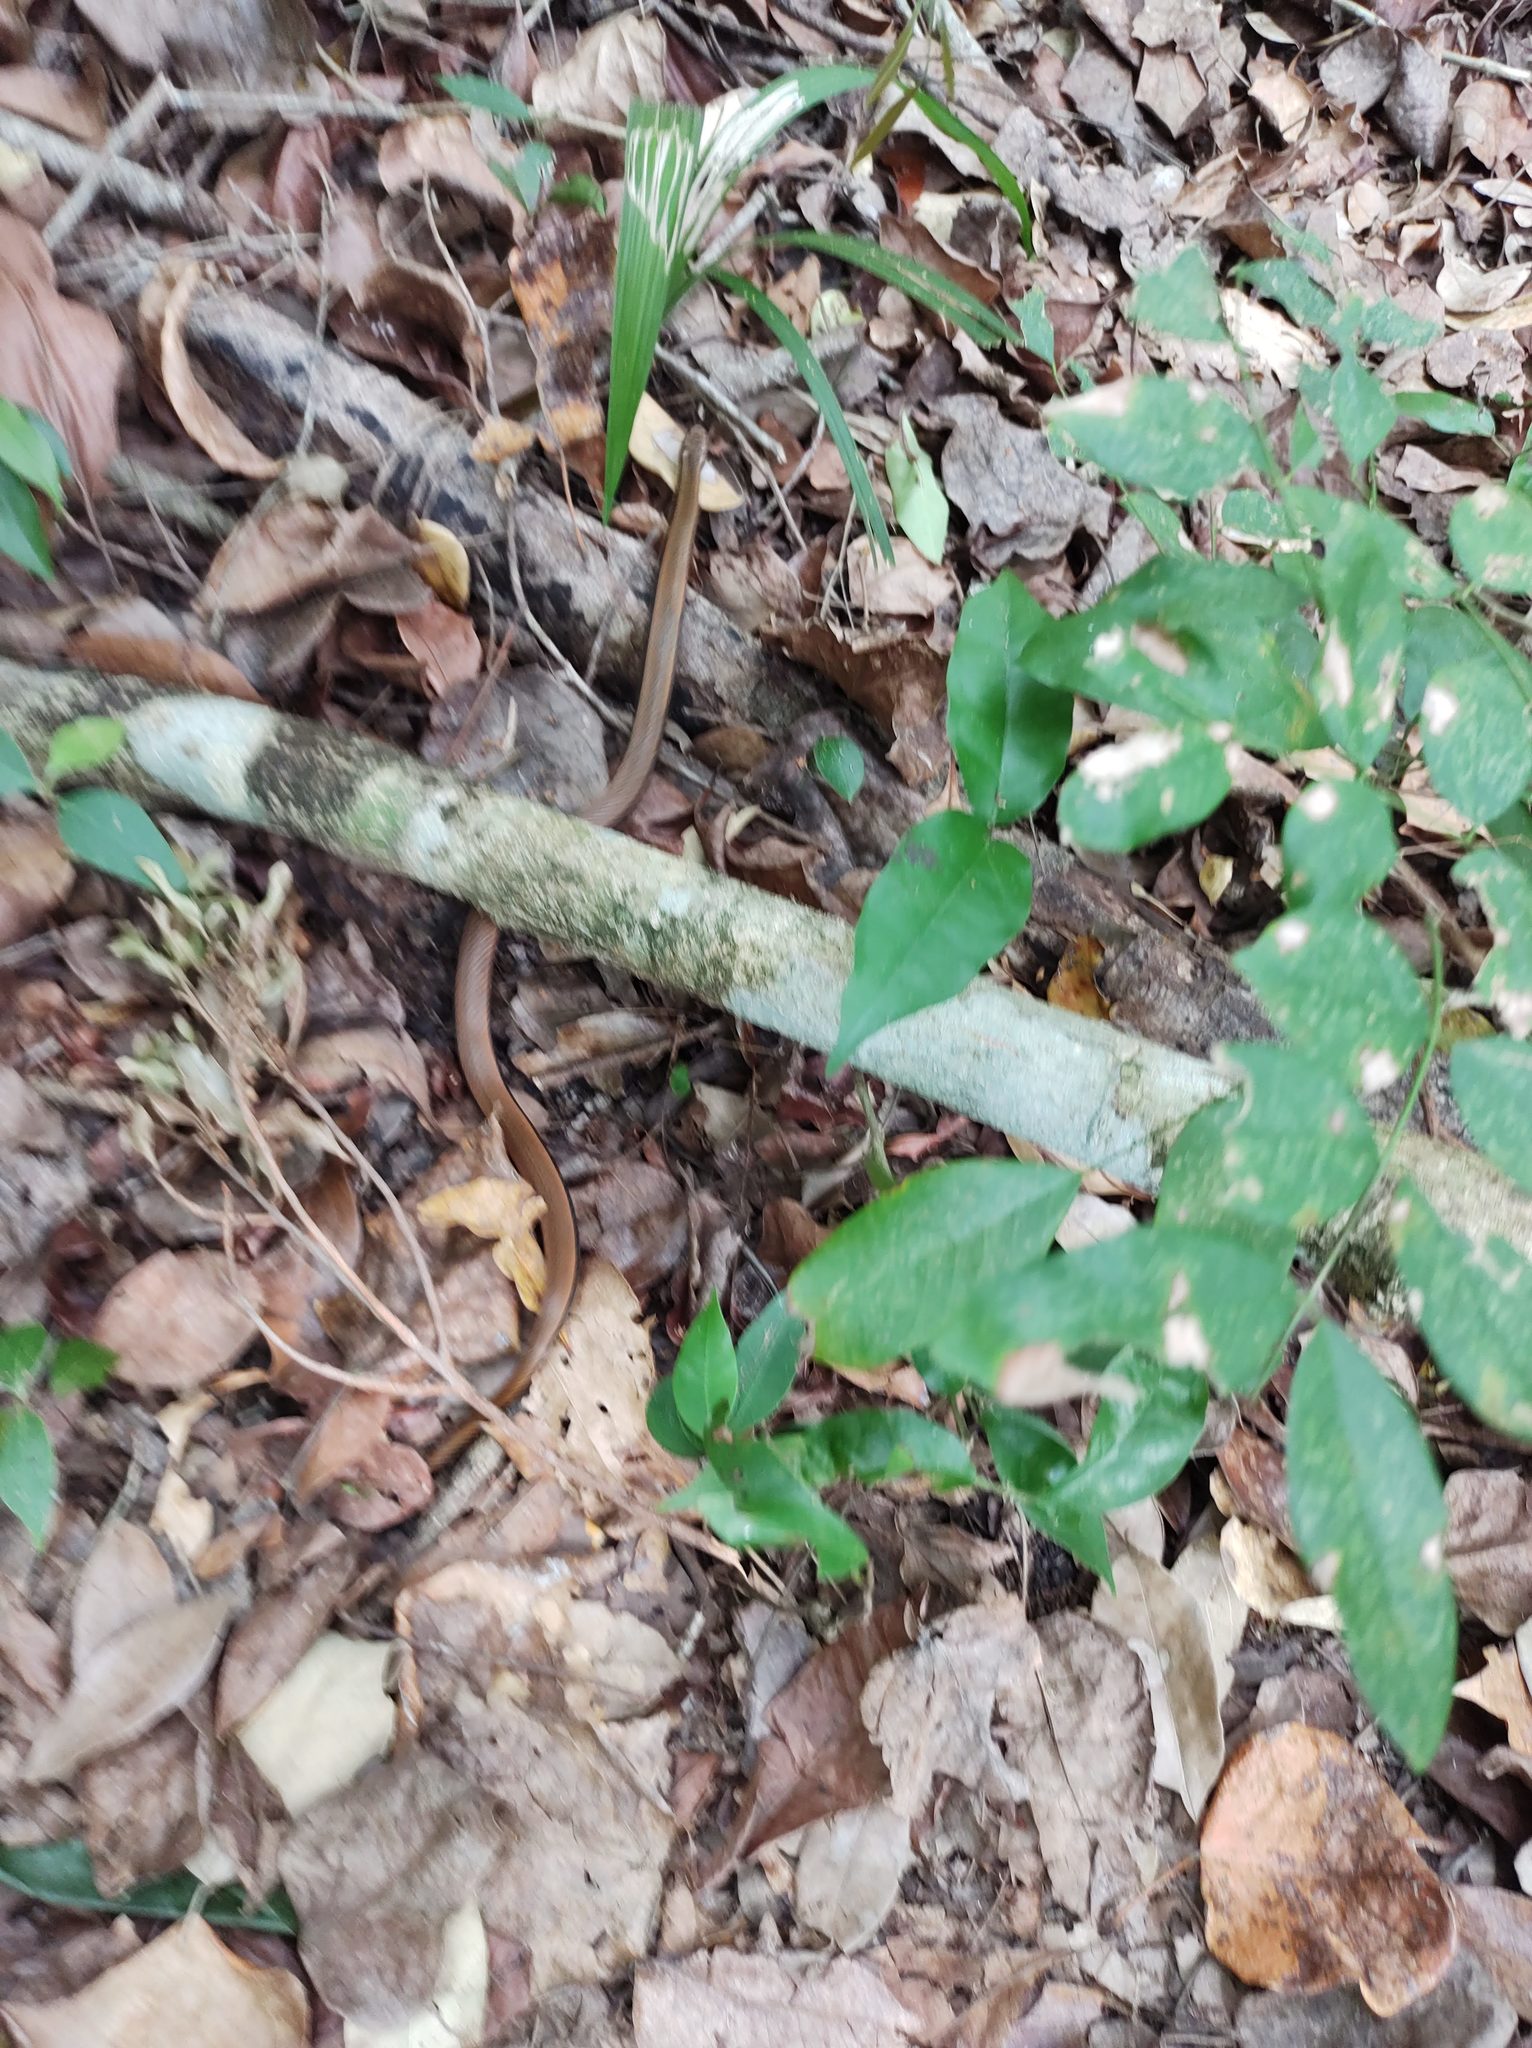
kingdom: Animalia
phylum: Chordata
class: Squamata
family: Colubridae
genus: Coniophanes
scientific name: Coniophanes imperialis
